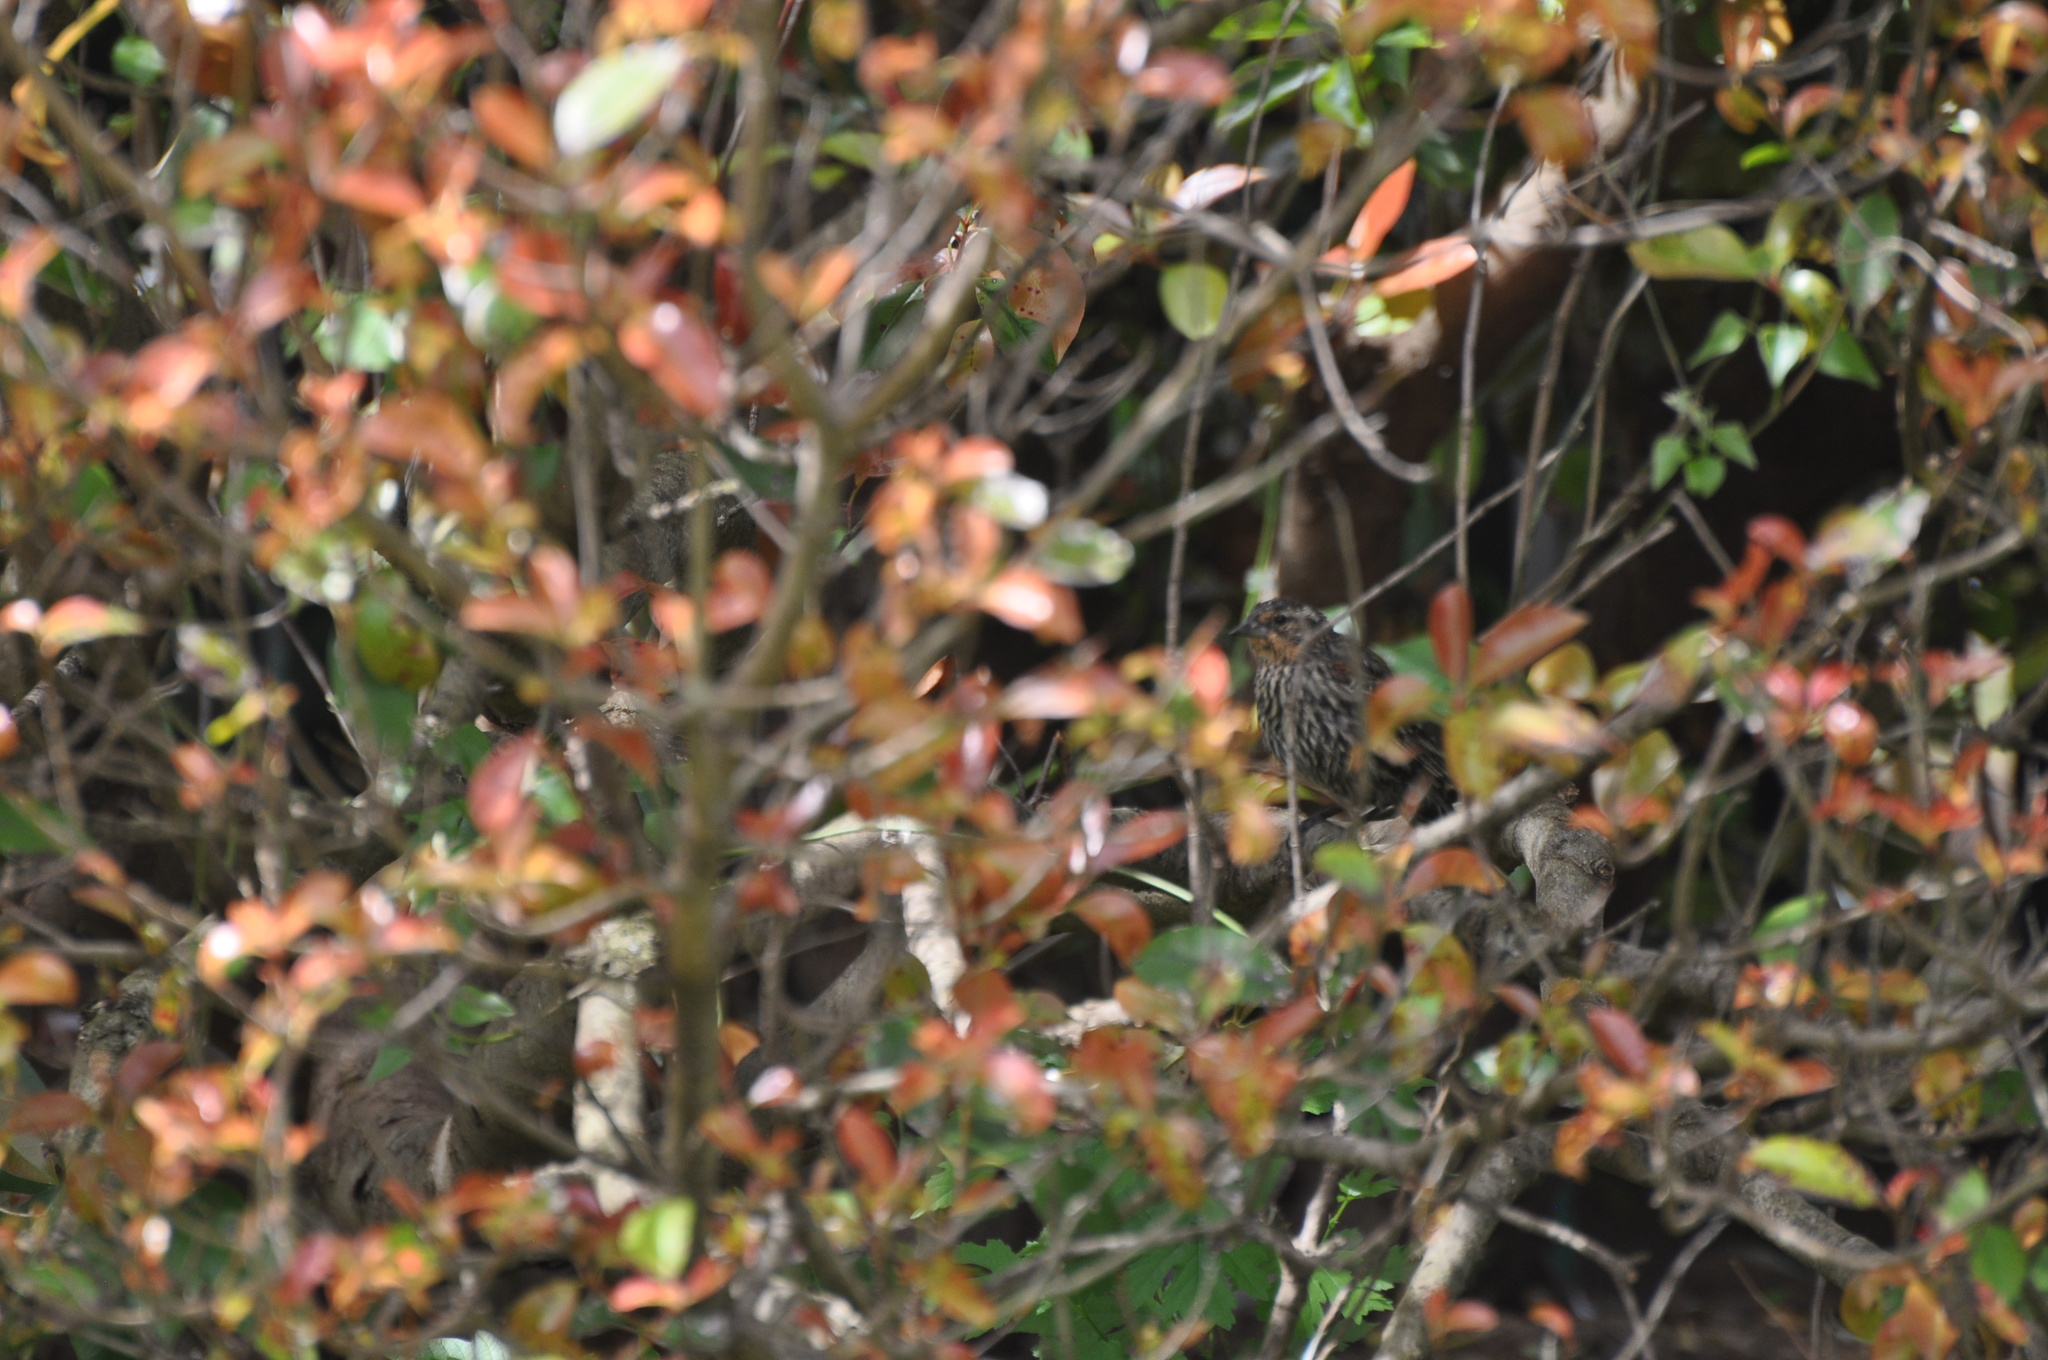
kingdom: Animalia
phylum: Chordata
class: Aves
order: Passeriformes
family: Icteridae
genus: Agelaius
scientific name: Agelaius phoeniceus
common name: Red-winged blackbird
